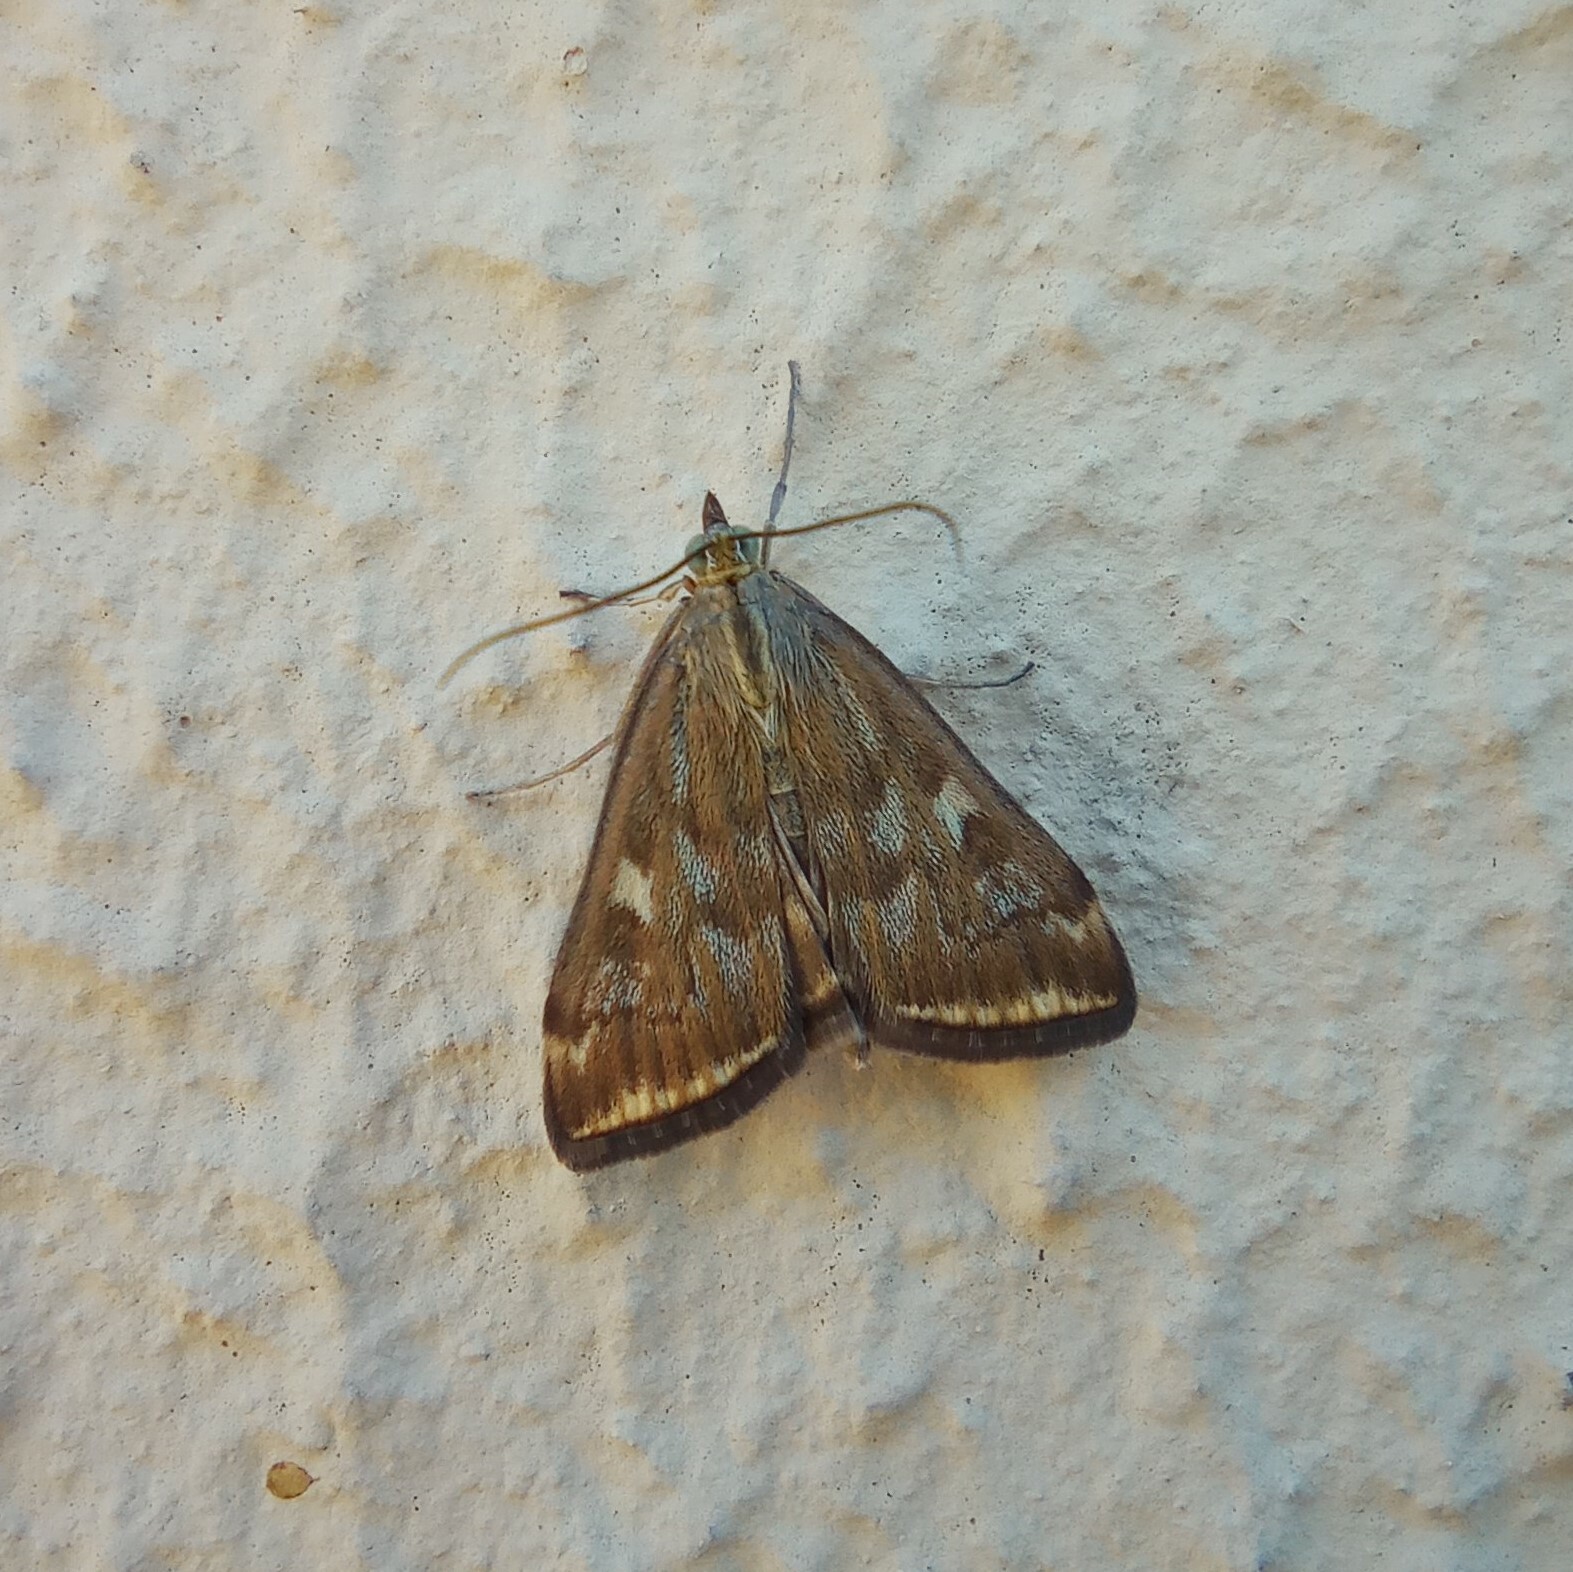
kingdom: Animalia
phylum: Arthropoda
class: Insecta
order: Lepidoptera
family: Crambidae
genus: Loxostege
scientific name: Loxostege sticticalis
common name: Crambid moth
